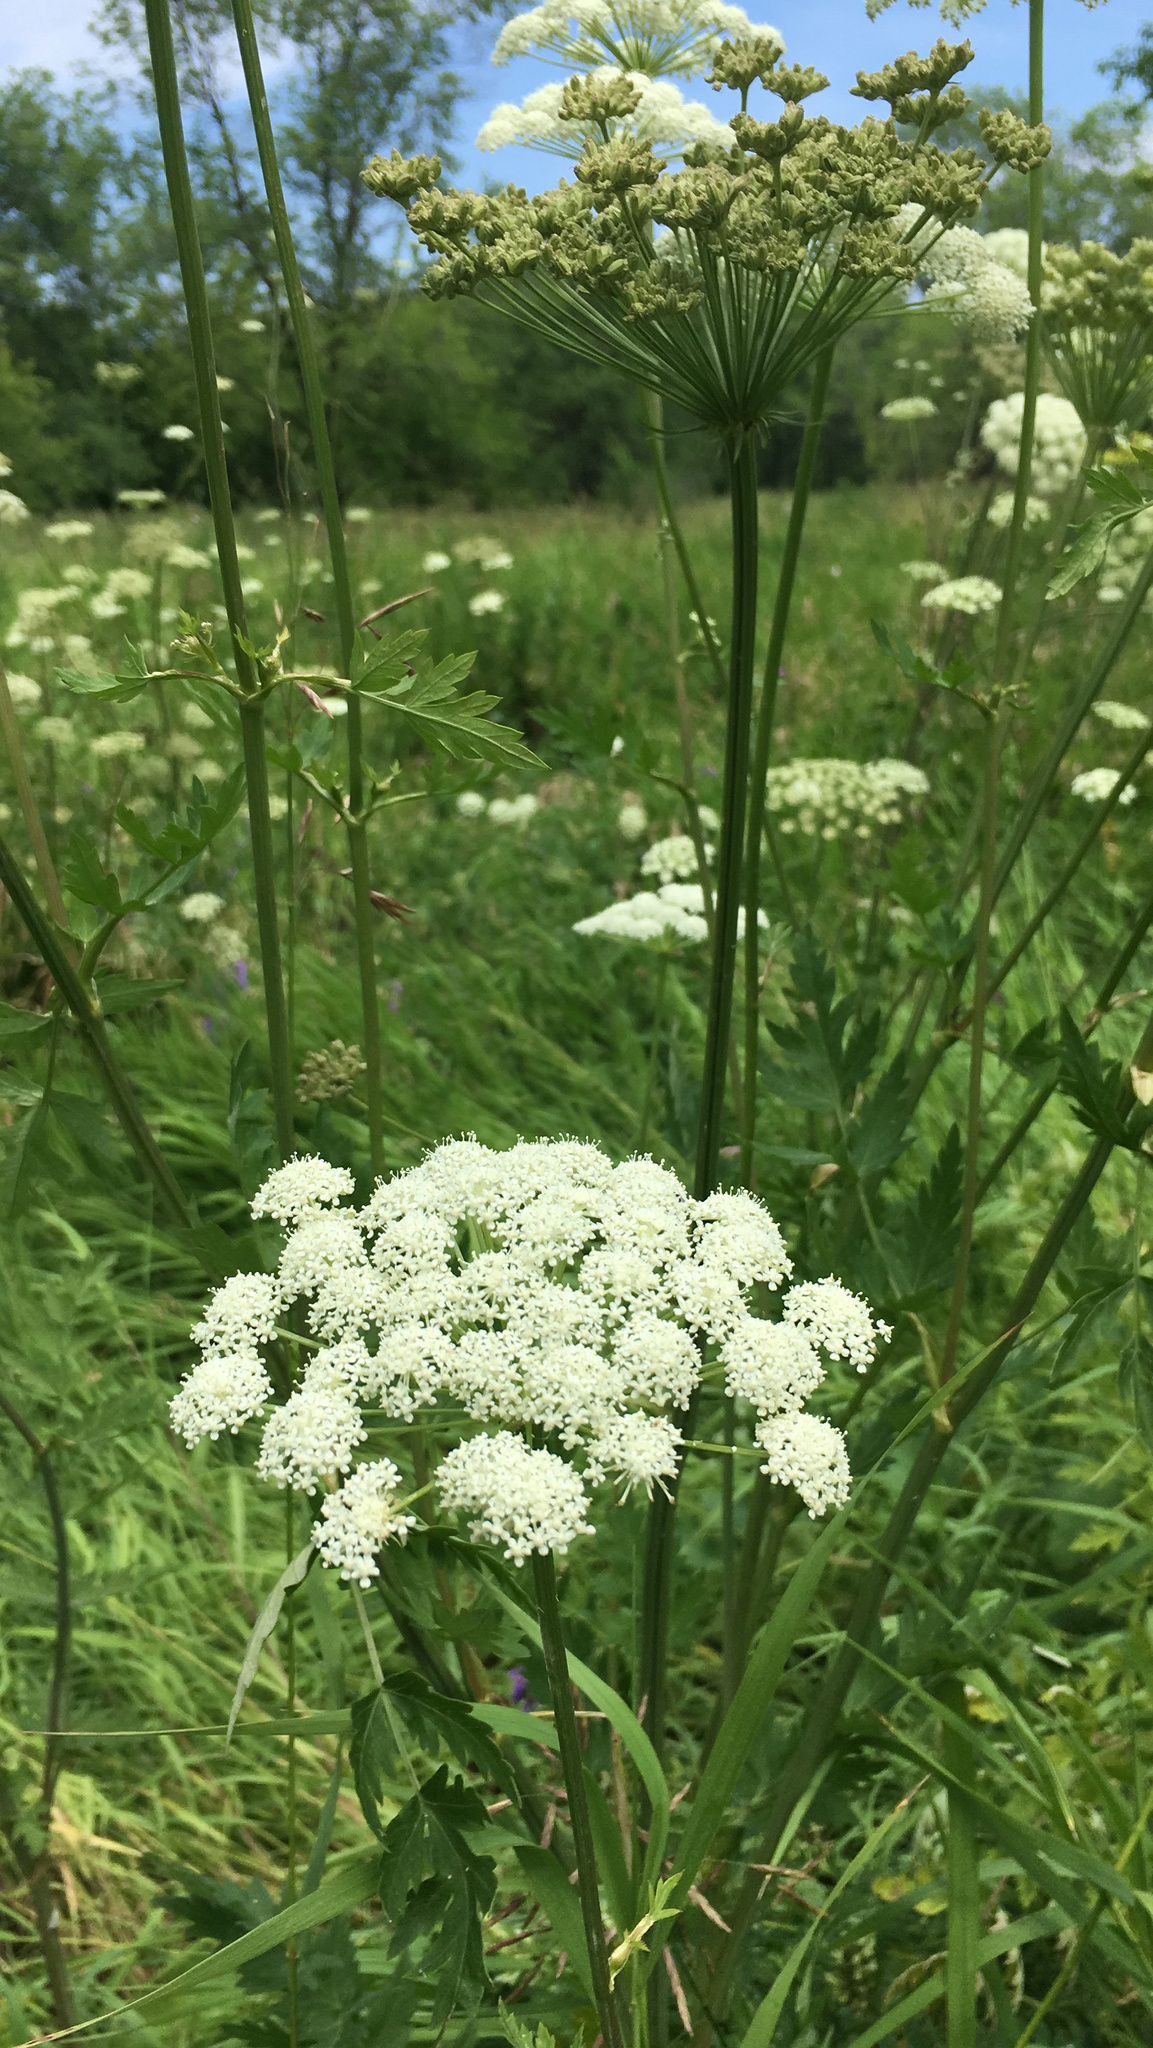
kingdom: Plantae
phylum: Tracheophyta
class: Magnoliopsida
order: Apiales
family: Apiaceae
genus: Seseli
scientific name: Seseli libanotis
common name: Mooncarrot
